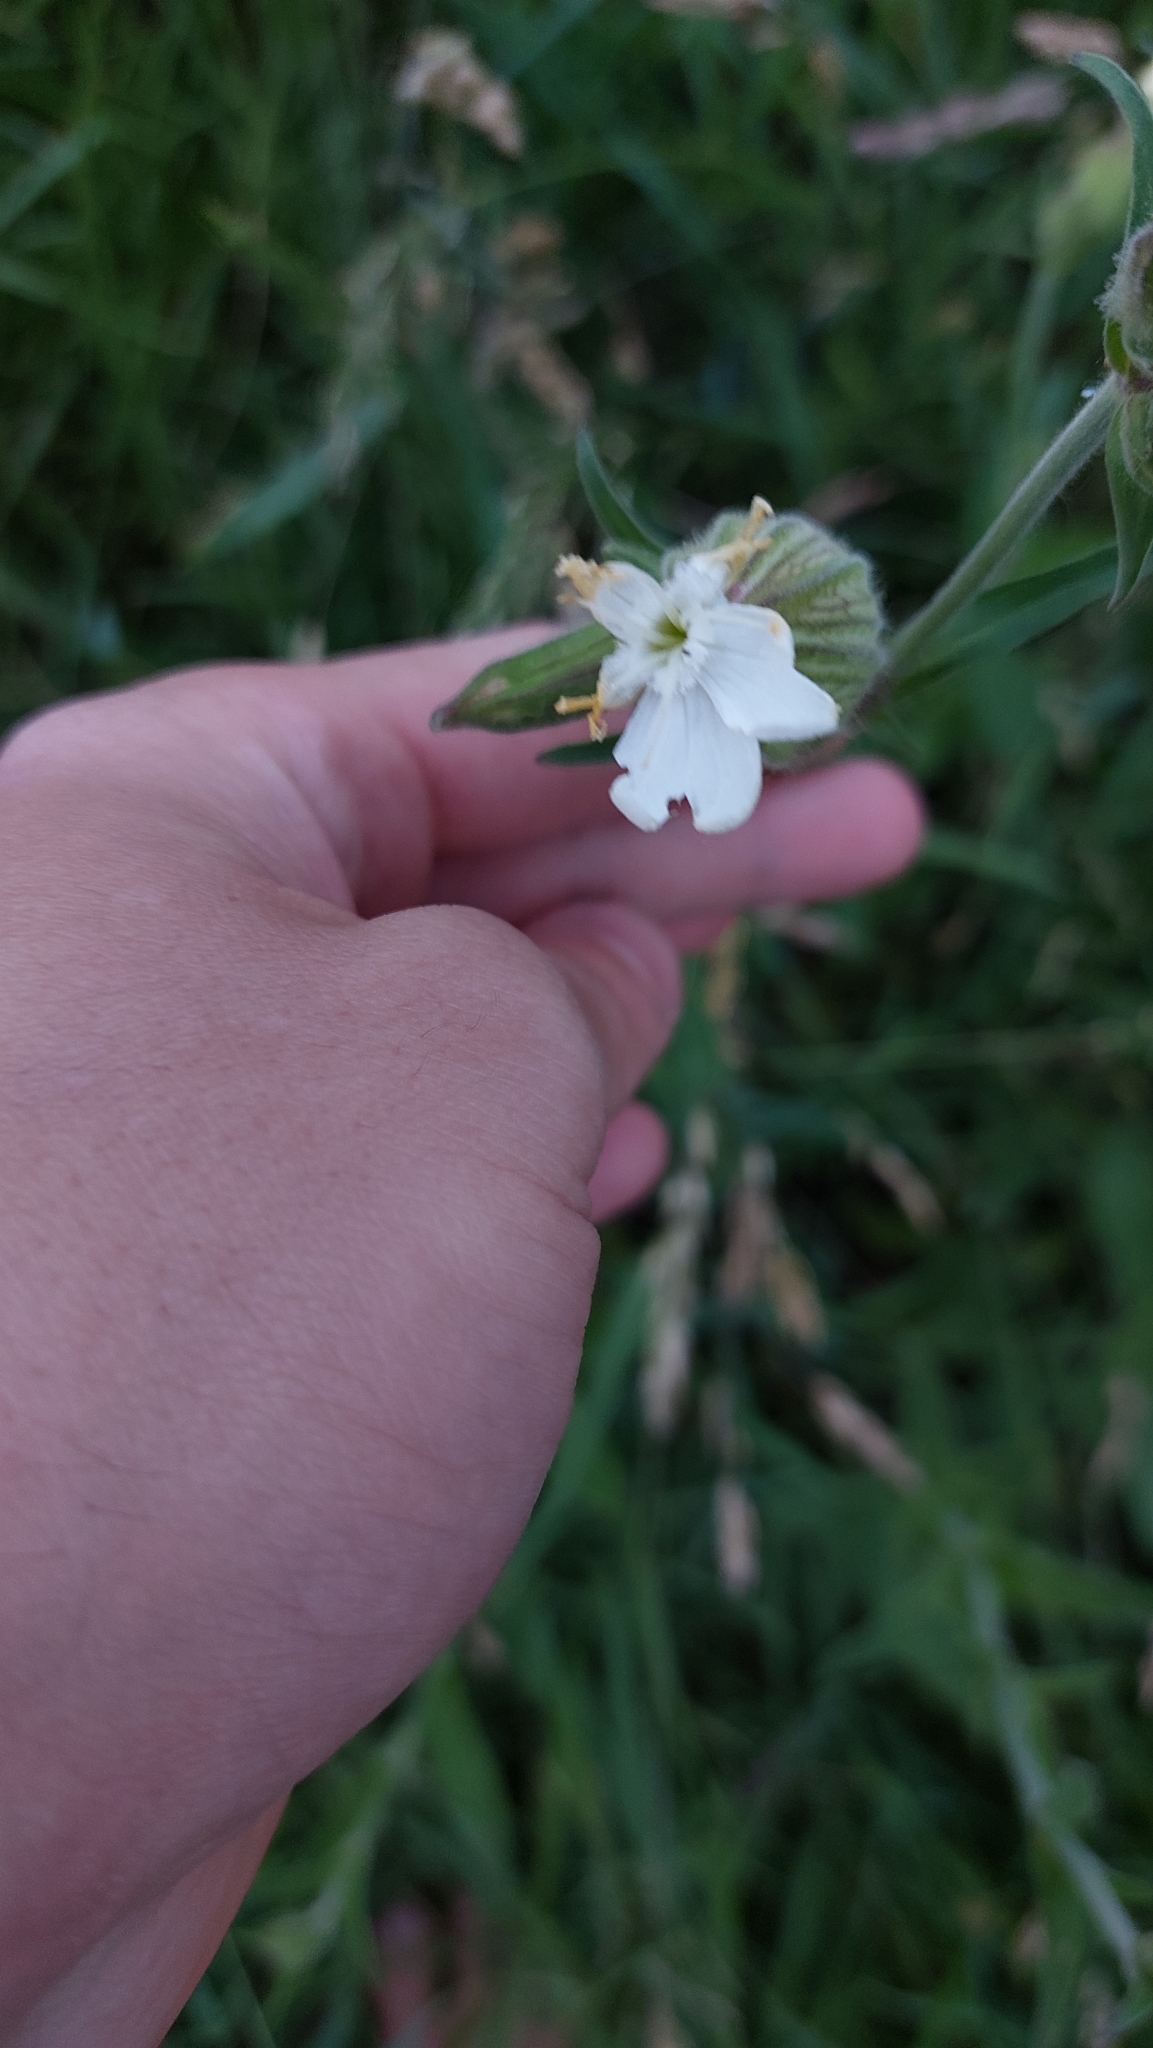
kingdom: Plantae
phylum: Tracheophyta
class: Magnoliopsida
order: Caryophyllales
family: Caryophyllaceae
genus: Silene
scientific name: Silene latifolia
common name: White campion
